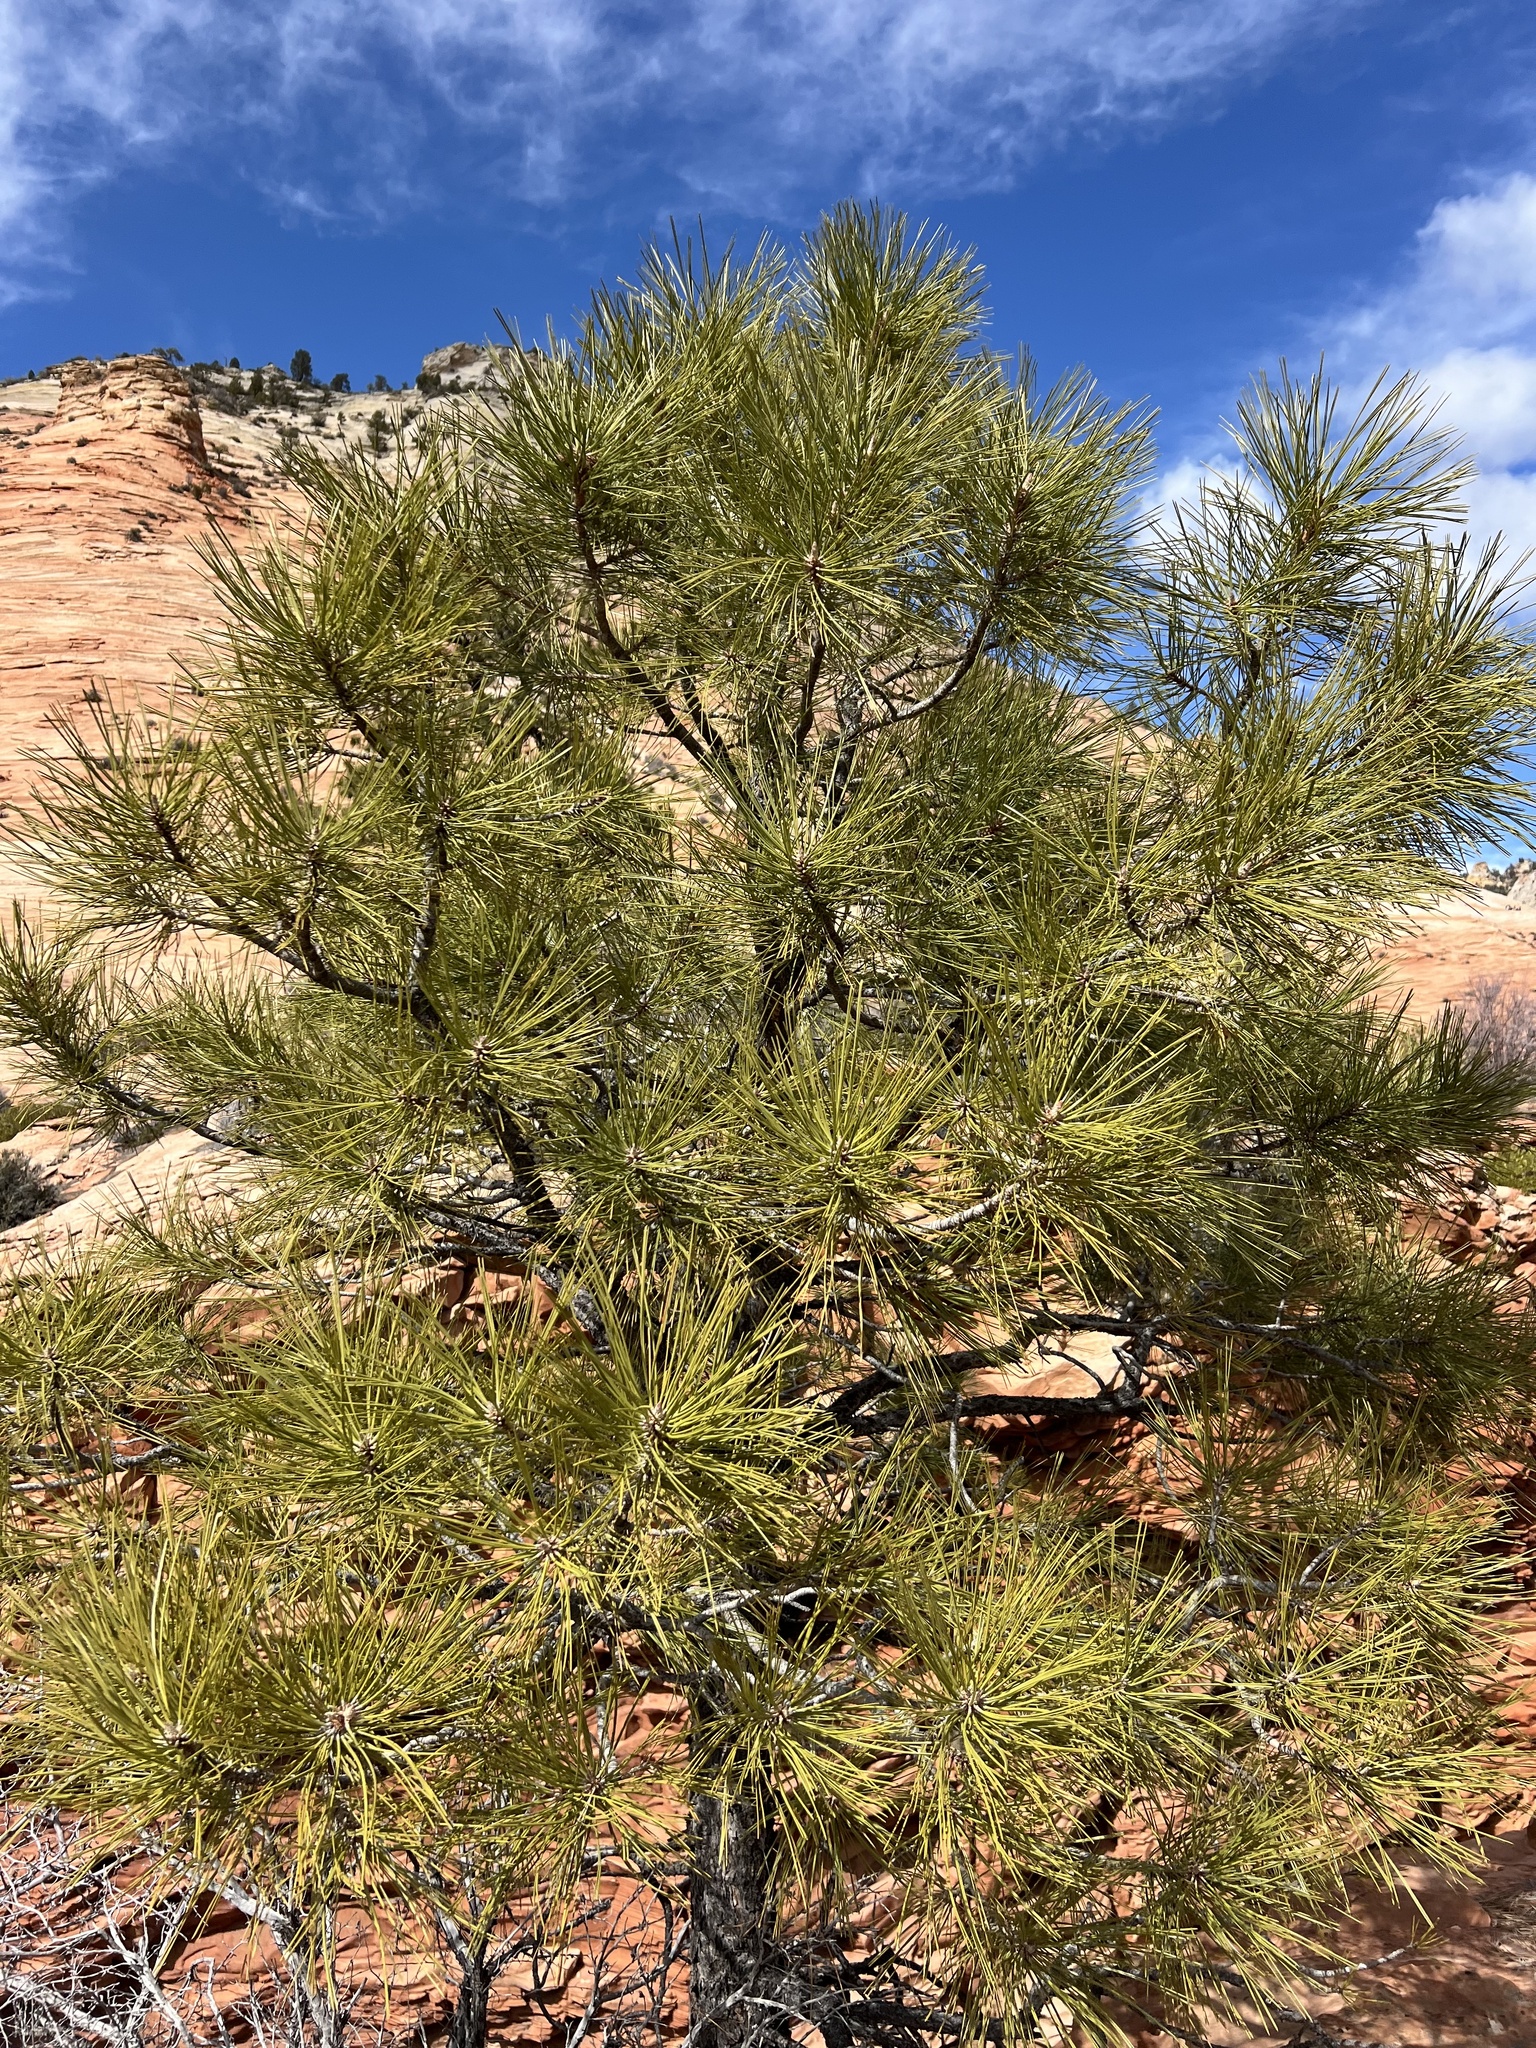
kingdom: Plantae
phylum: Tracheophyta
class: Pinopsida
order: Pinales
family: Pinaceae
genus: Pinus
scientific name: Pinus ponderosa
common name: Western yellow-pine
